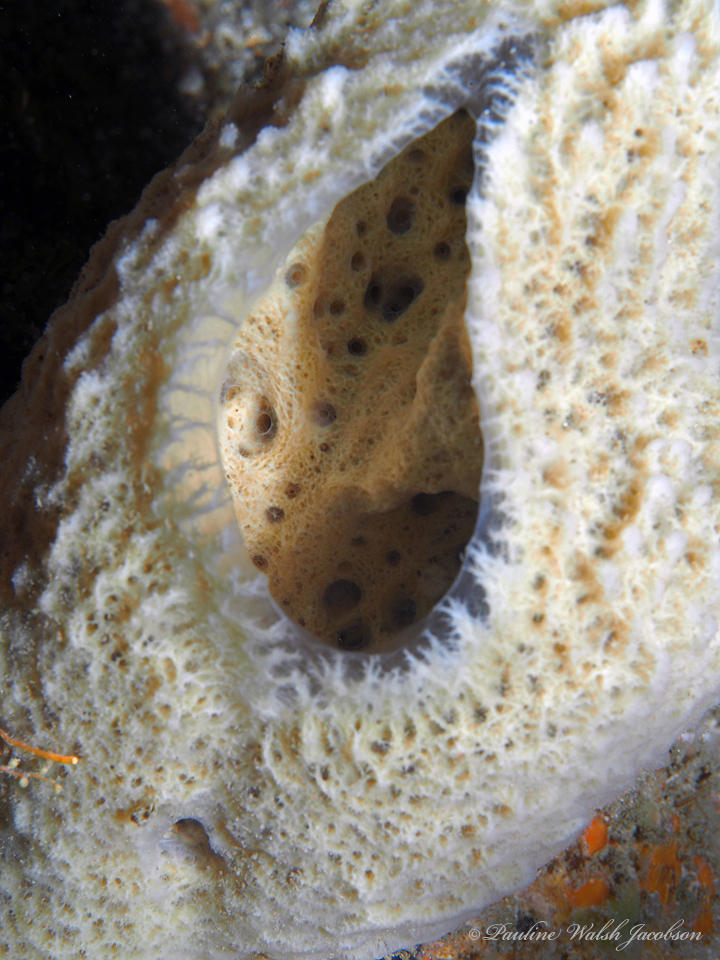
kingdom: Animalia
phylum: Porifera
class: Demospongiae
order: Haplosclerida
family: Niphatidae
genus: Niphates
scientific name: Niphates digitalis
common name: Pink vase sponge
